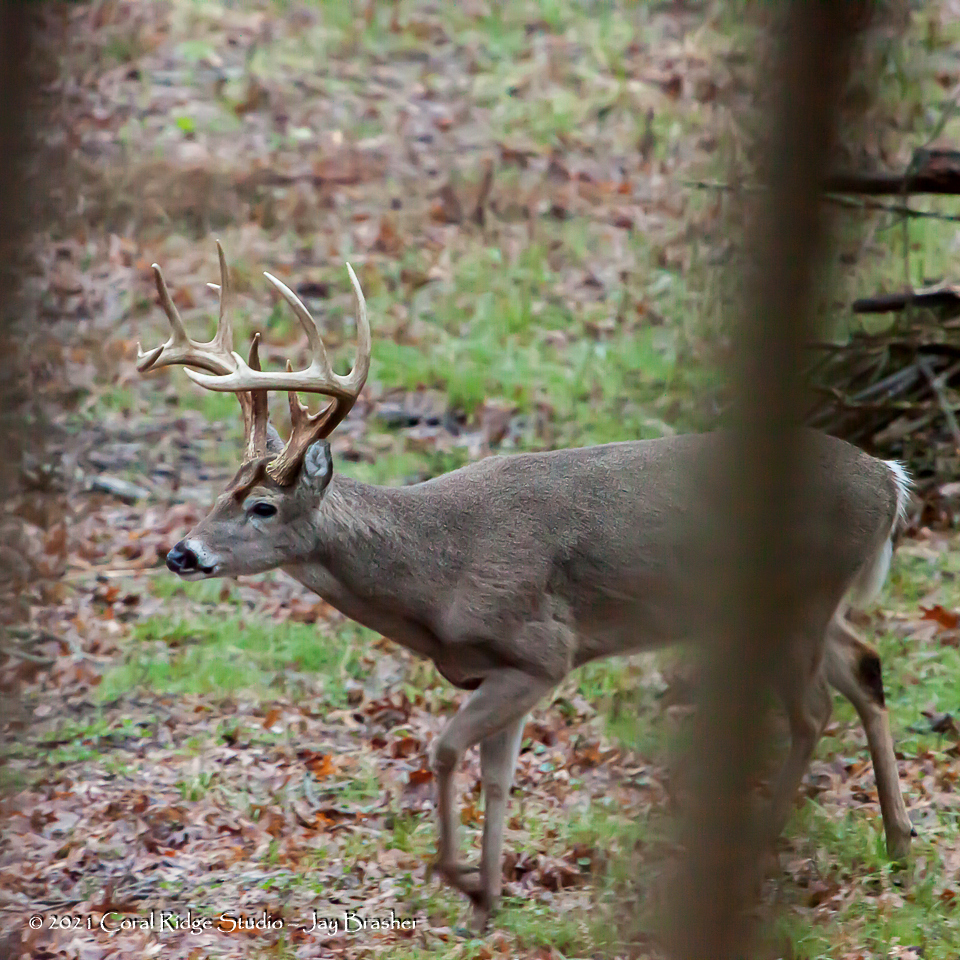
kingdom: Animalia
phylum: Chordata
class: Mammalia
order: Artiodactyla
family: Cervidae
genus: Odocoileus
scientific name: Odocoileus virginianus
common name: White-tailed deer
